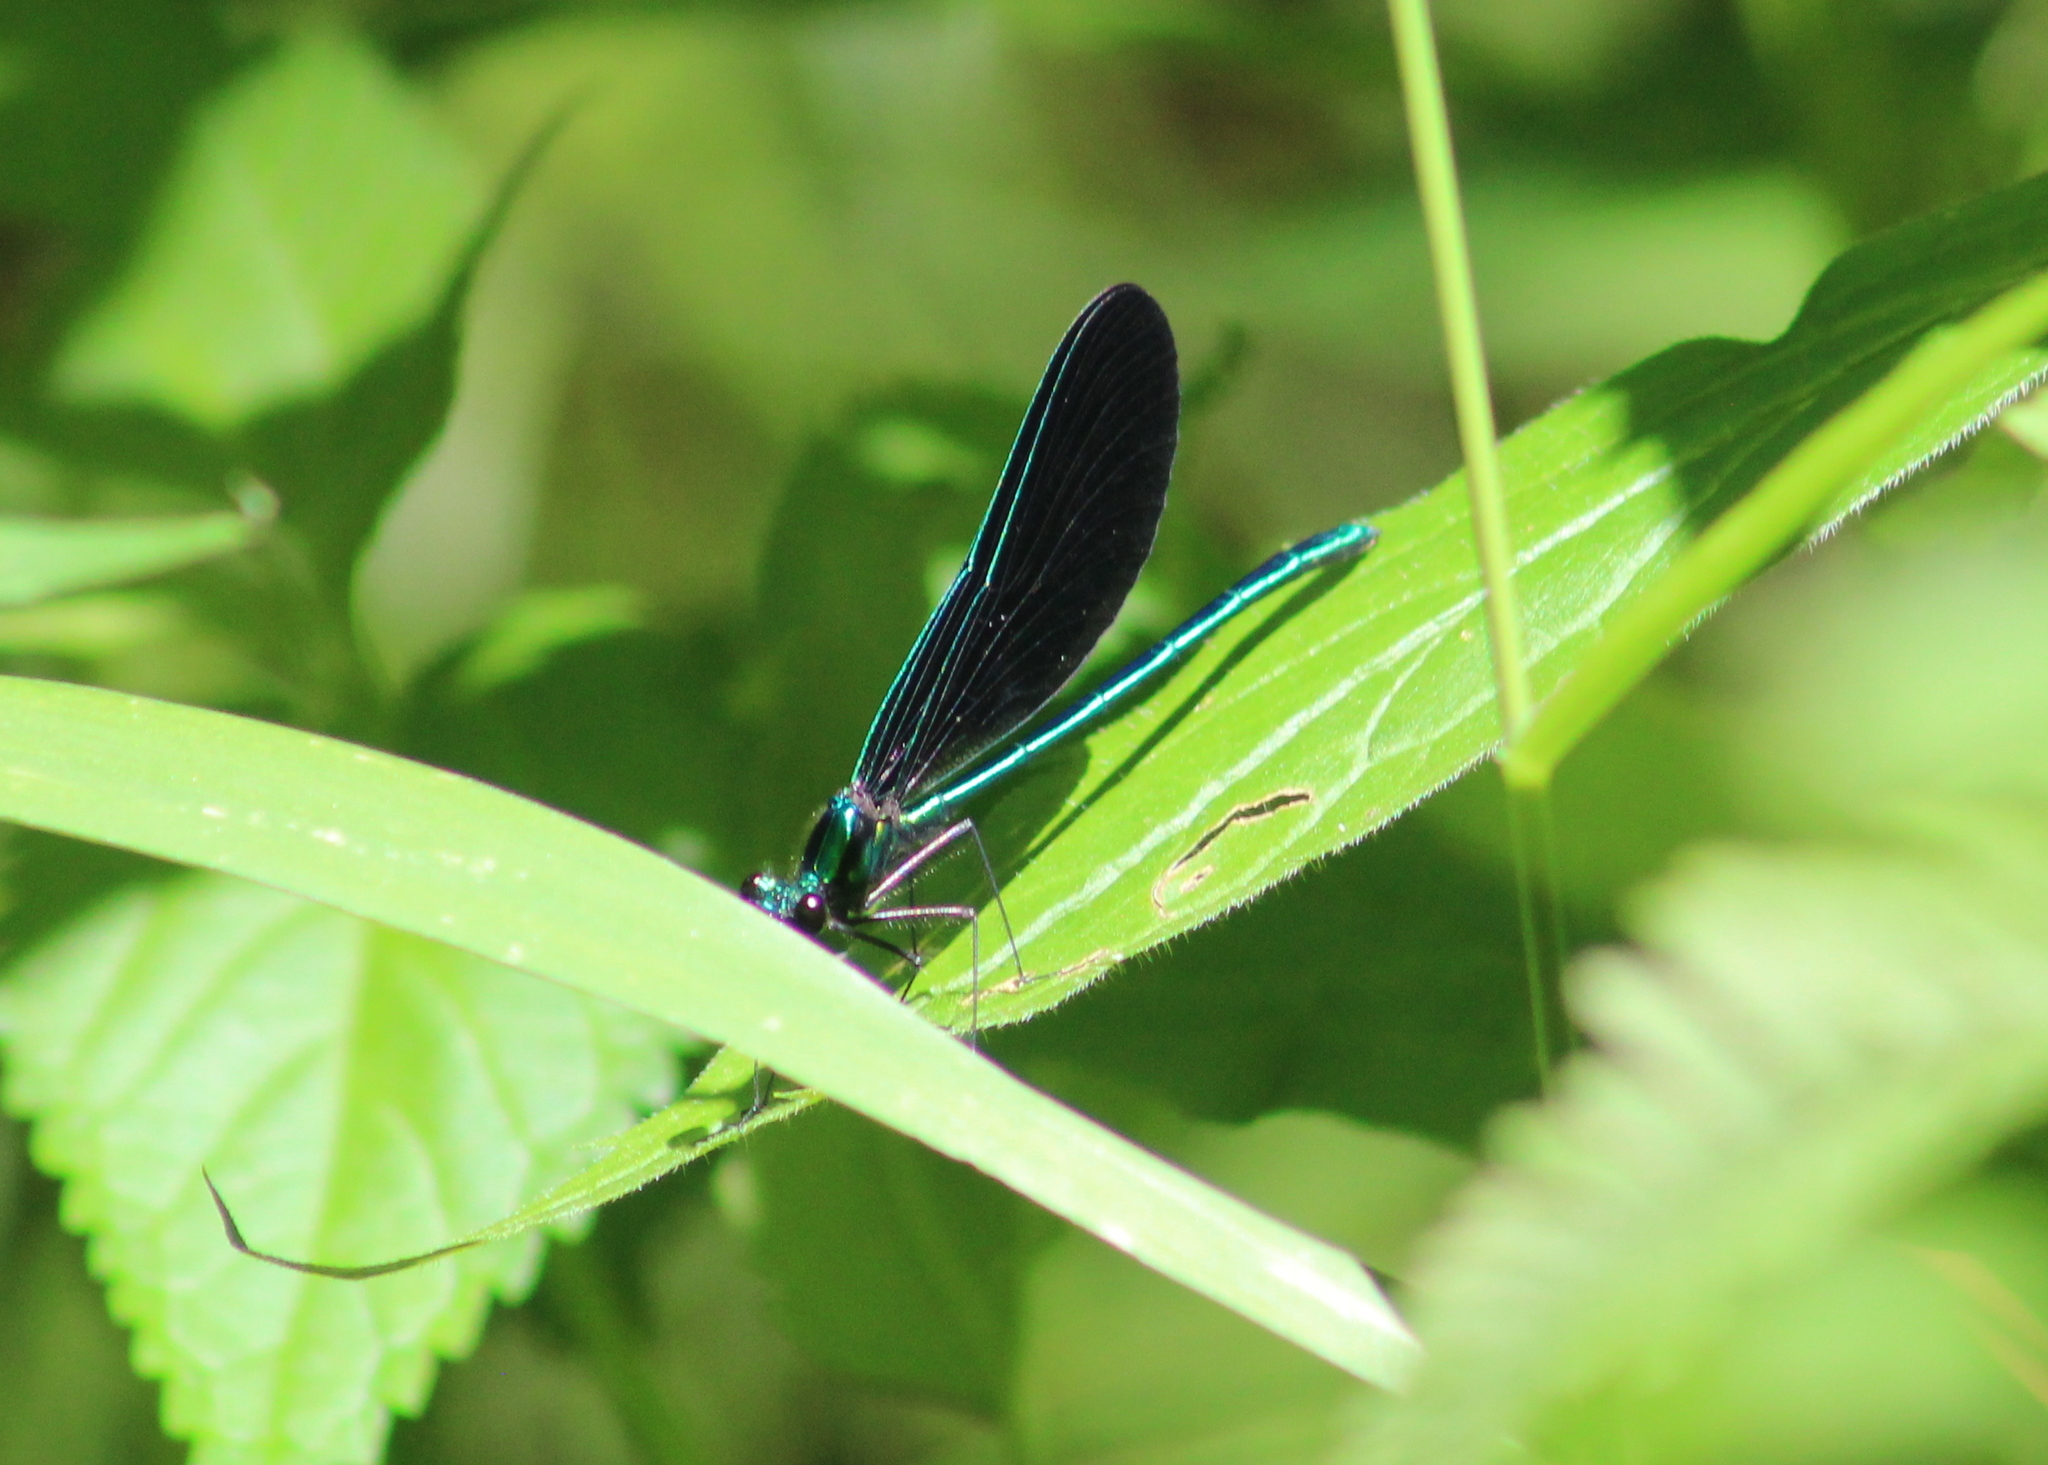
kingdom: Animalia
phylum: Arthropoda
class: Insecta
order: Odonata
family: Calopterygidae
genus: Calopteryx
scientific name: Calopteryx maculata
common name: Ebony jewelwing
